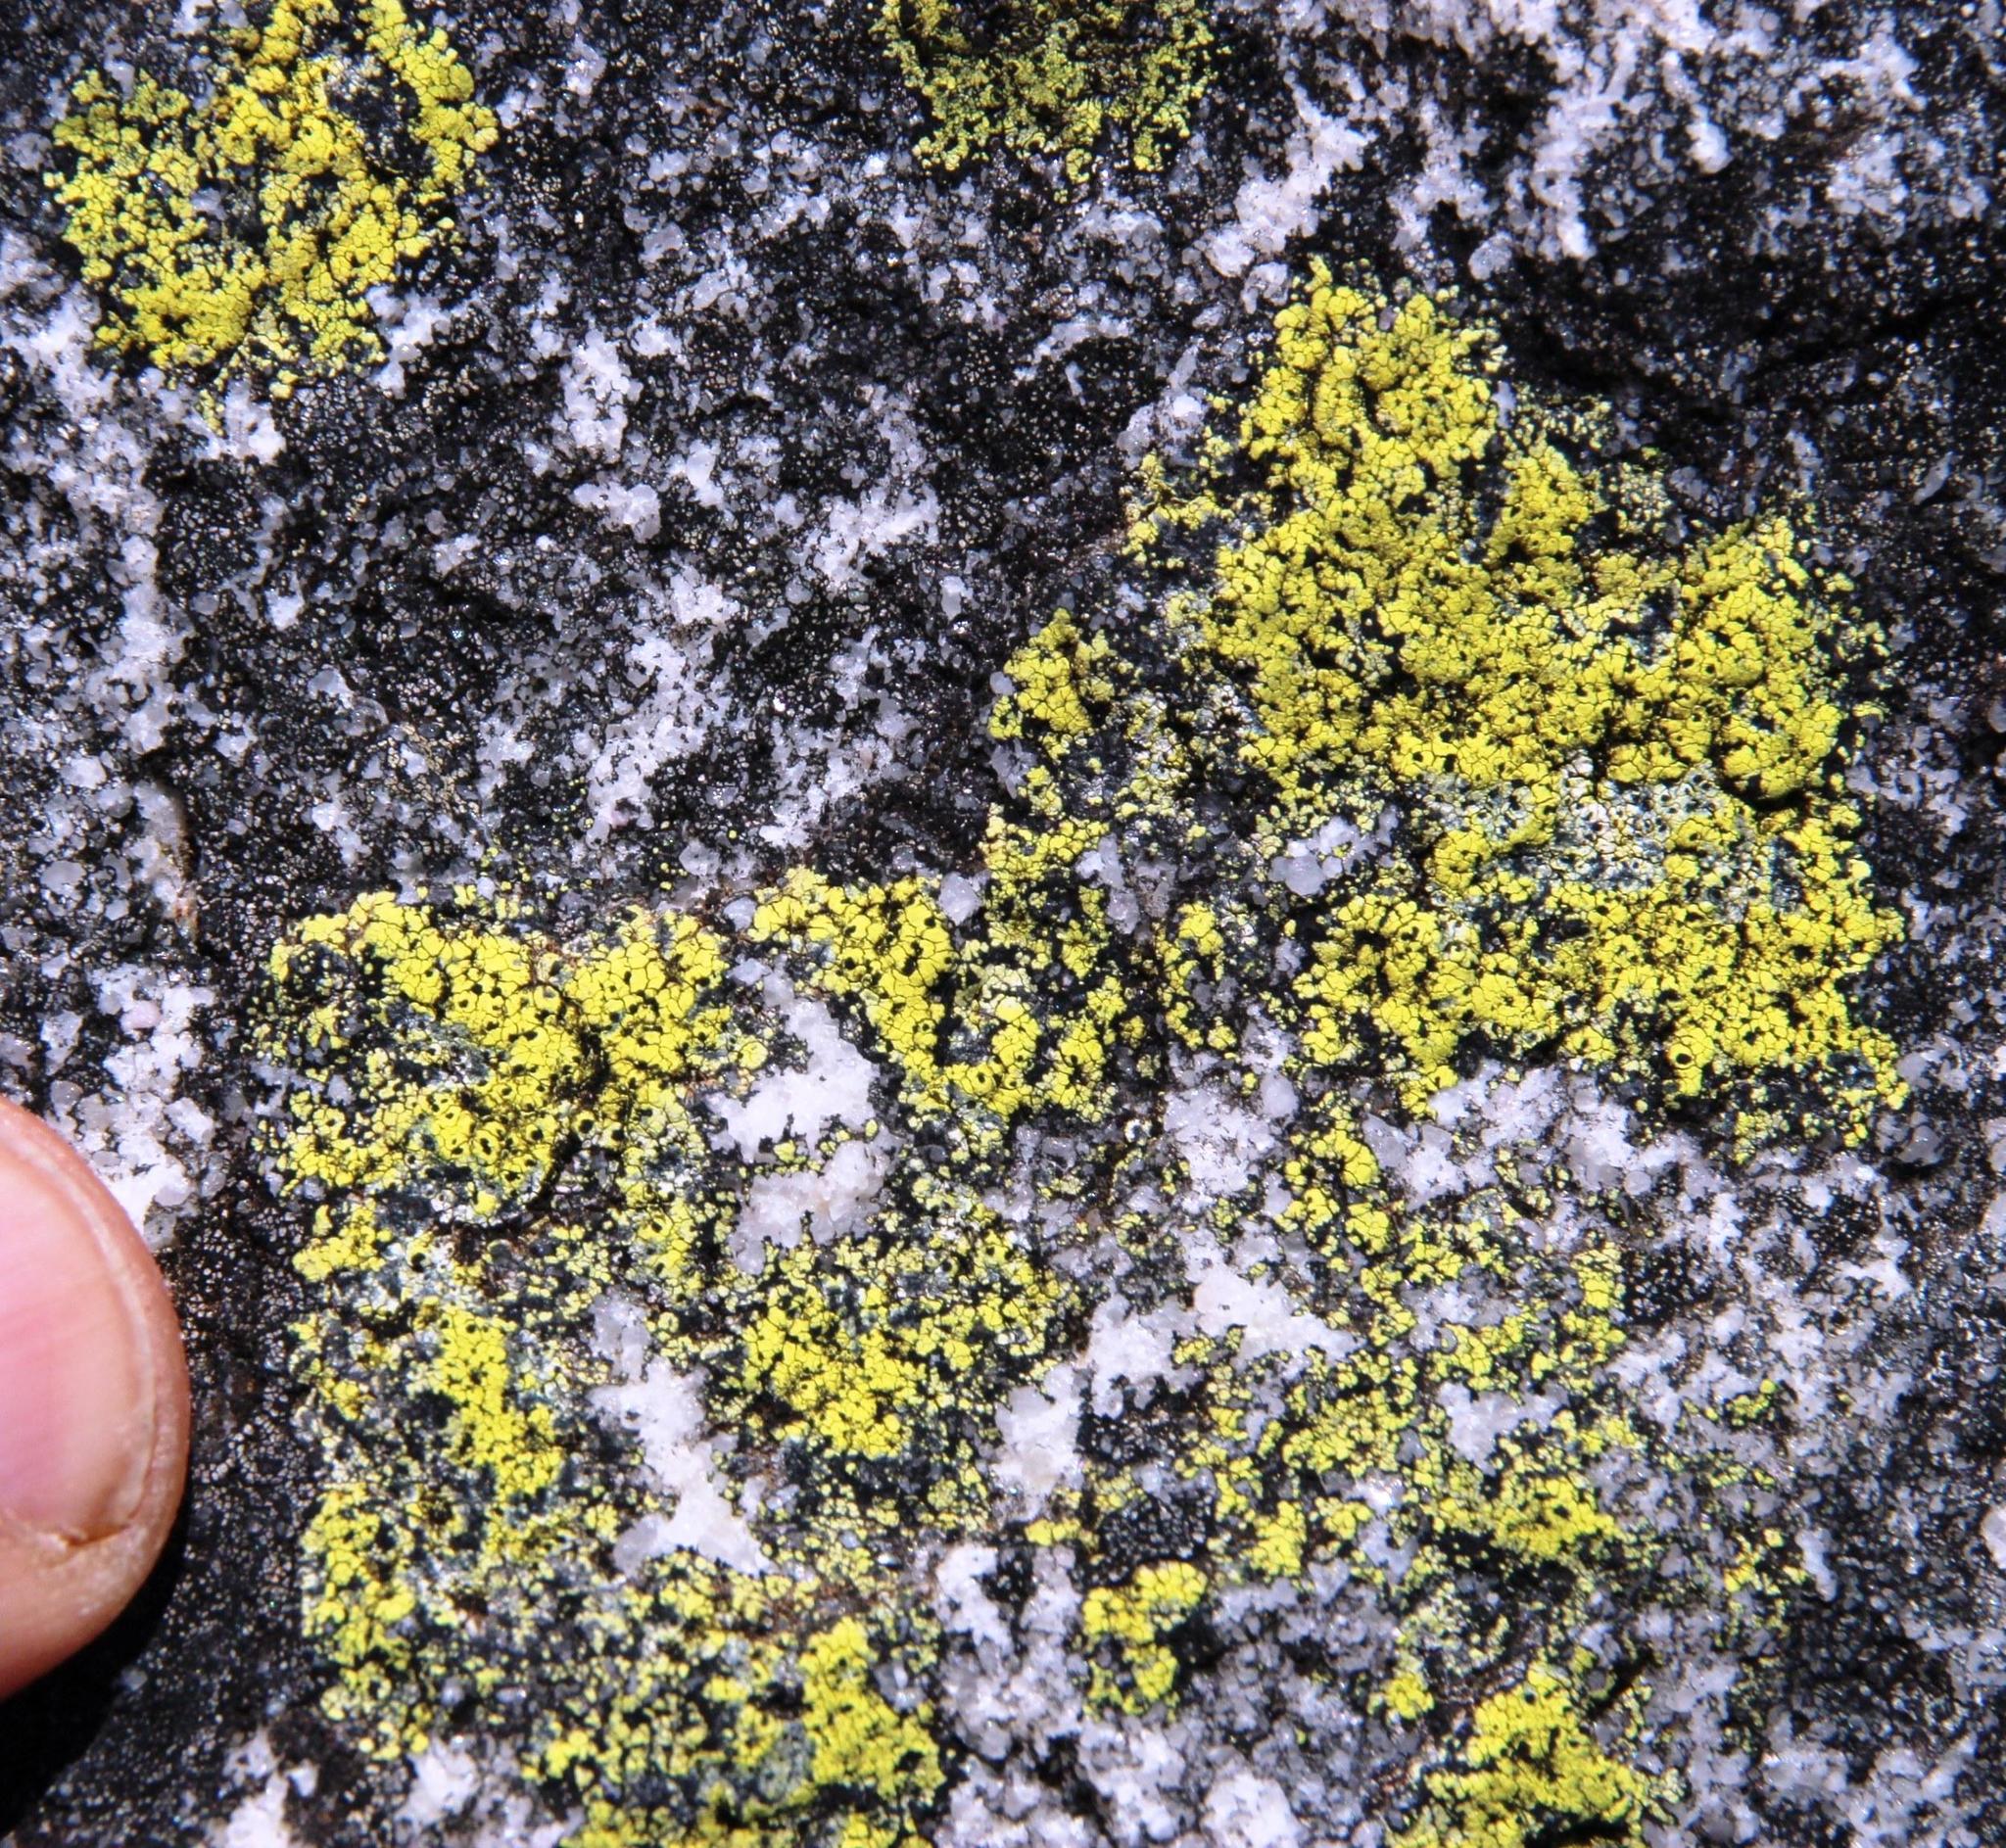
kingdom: Fungi
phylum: Ascomycota
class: Lecanoromycetes
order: Rhizocarpales
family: Rhizocarpaceae
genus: Rhizocarpon
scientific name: Rhizocarpon lecanorinum
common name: Crescent map lichen
